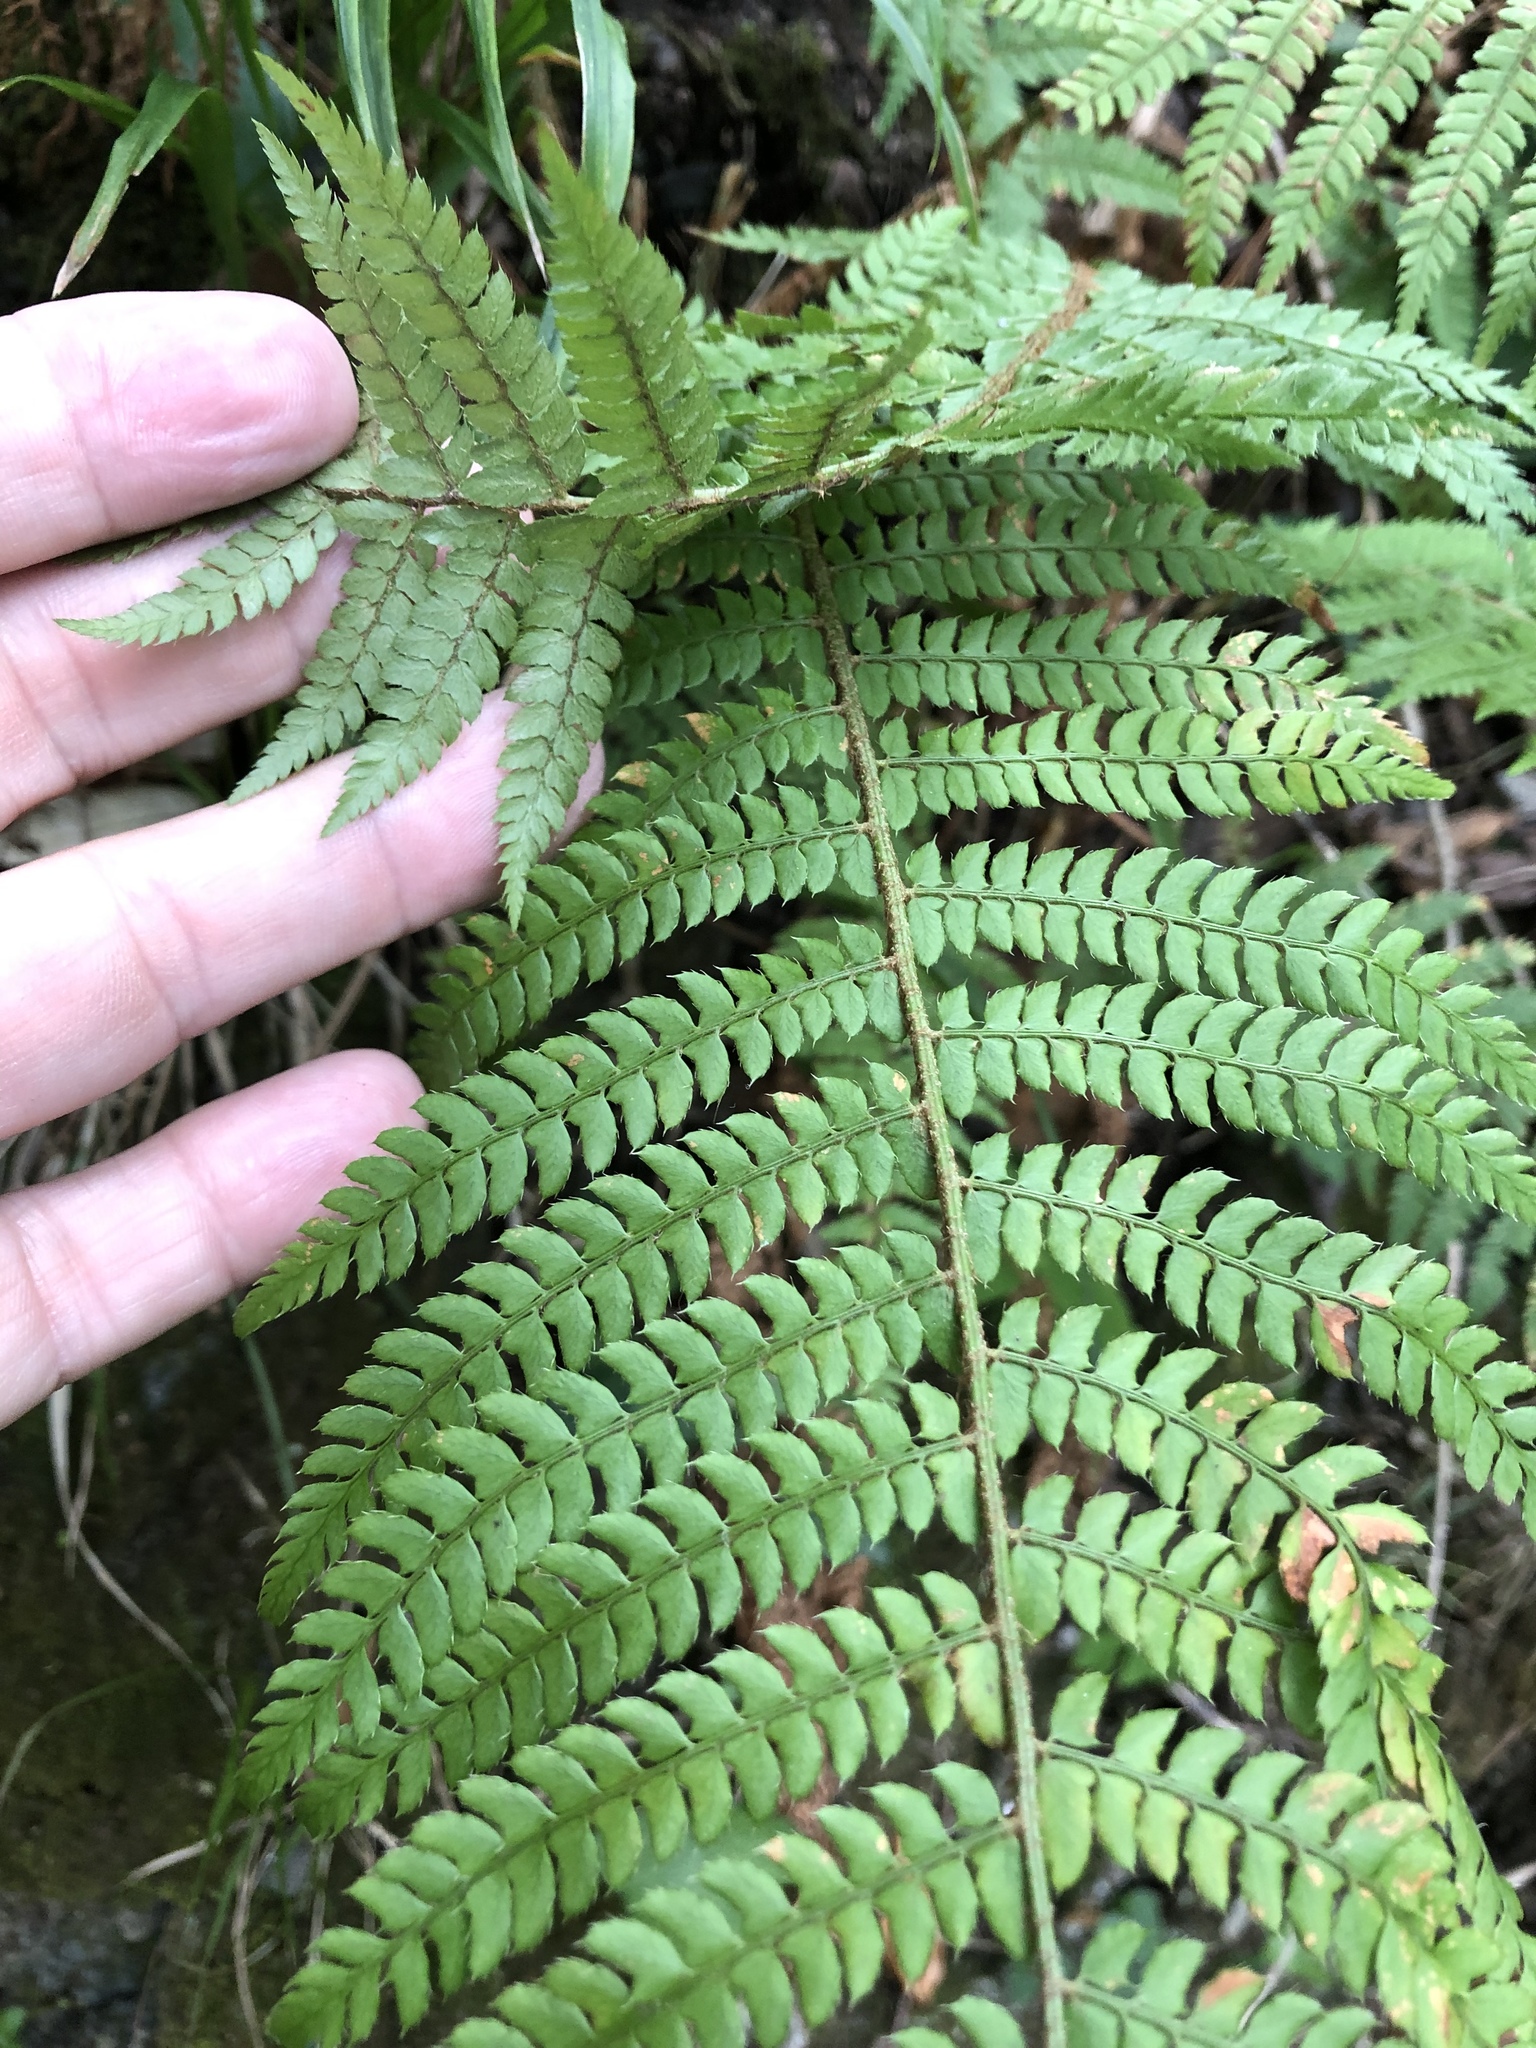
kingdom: Plantae
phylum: Tracheophyta
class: Polypodiopsida
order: Polypodiales
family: Dryopteridaceae
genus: Polystichum
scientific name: Polystichum setiferum
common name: Soft shield-fern
